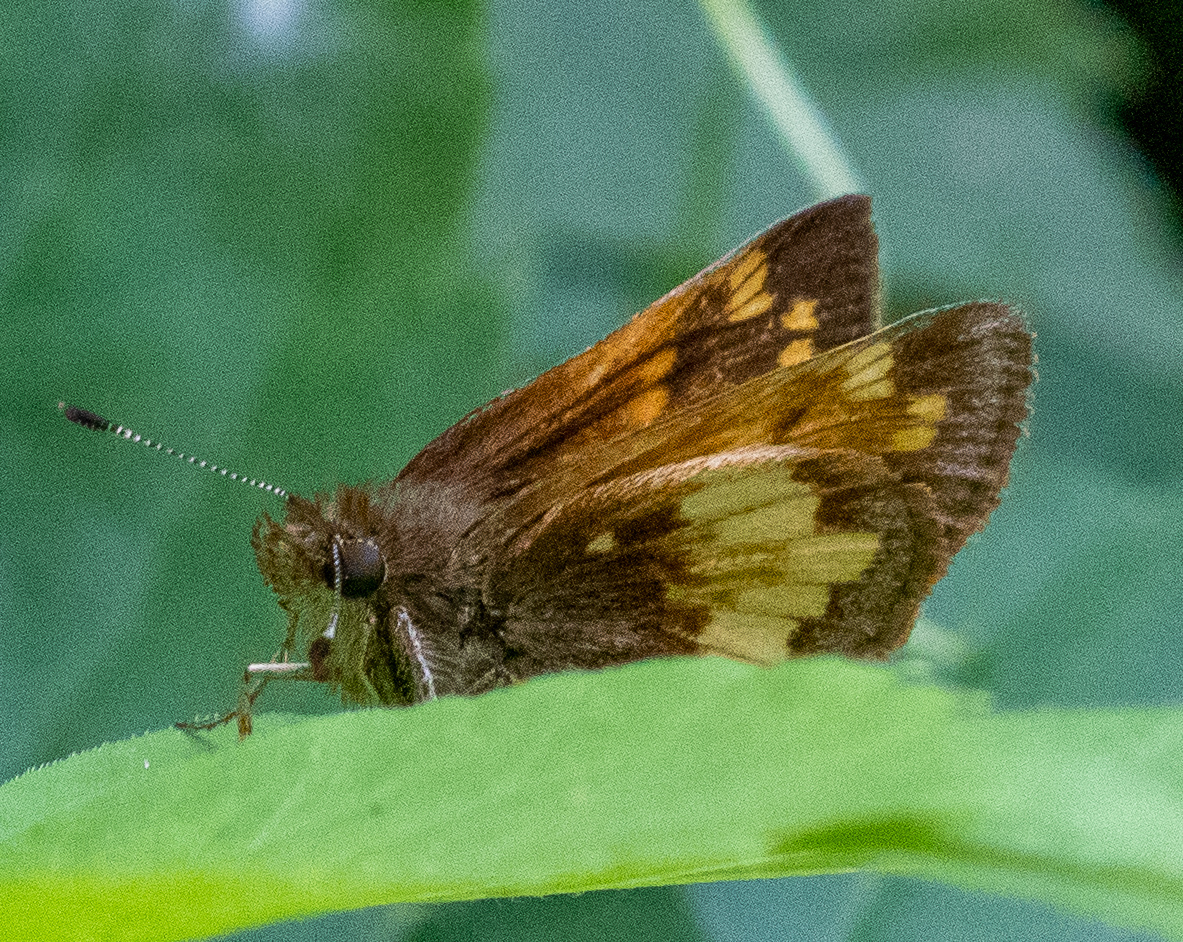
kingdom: Animalia
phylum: Arthropoda
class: Insecta
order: Lepidoptera
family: Hesperiidae
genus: Lon
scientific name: Lon hobomok
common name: Hobomok skipper
